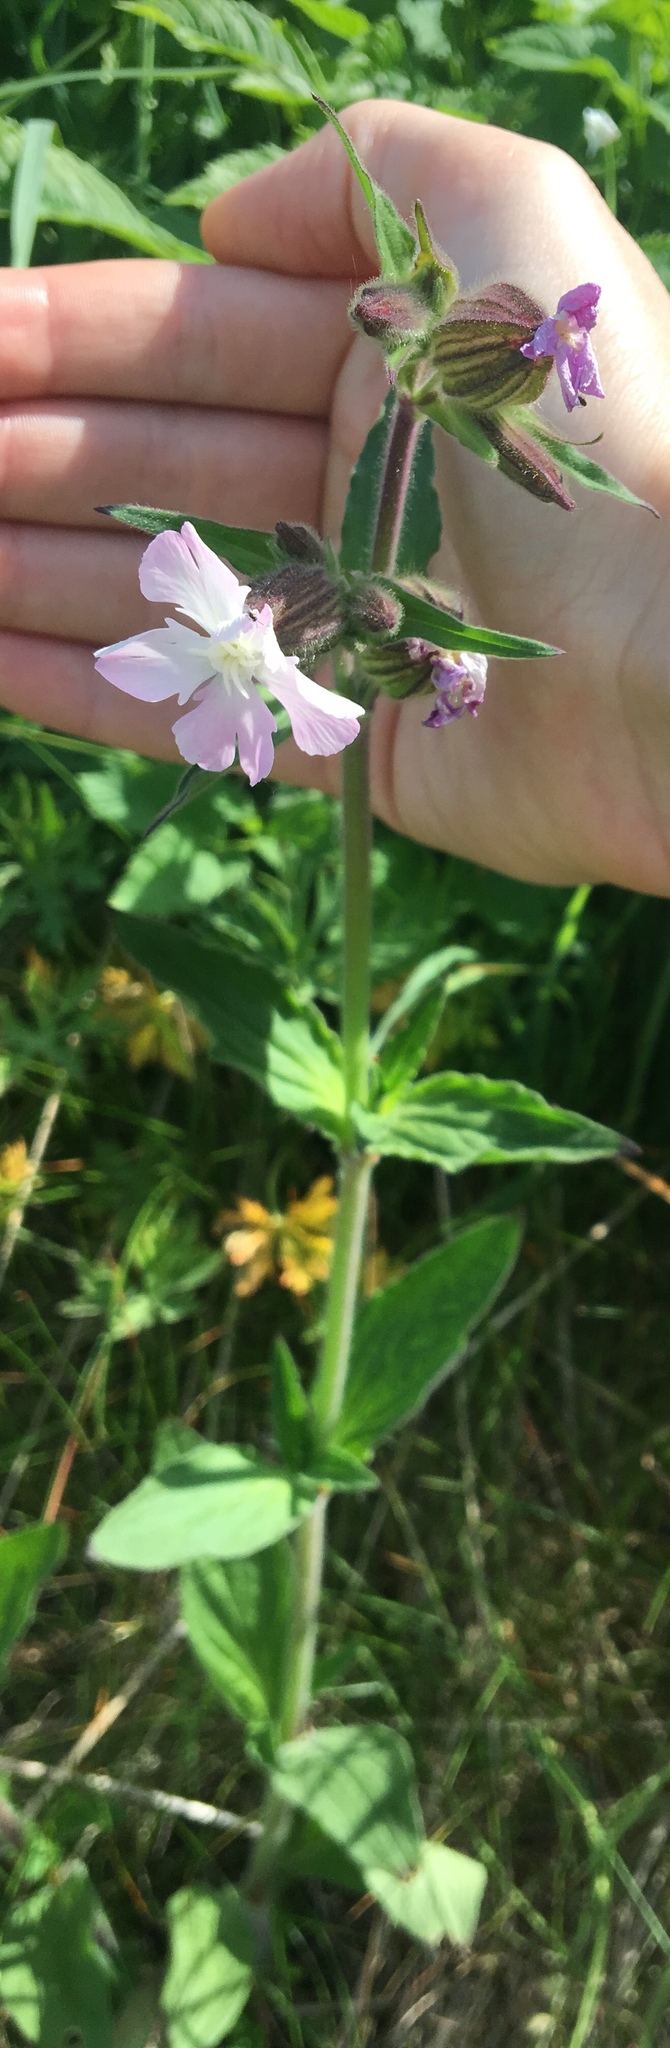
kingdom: Plantae
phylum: Tracheophyta
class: Magnoliopsida
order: Caryophyllales
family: Caryophyllaceae
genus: Silene
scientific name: Silene dioica
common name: Red campion
